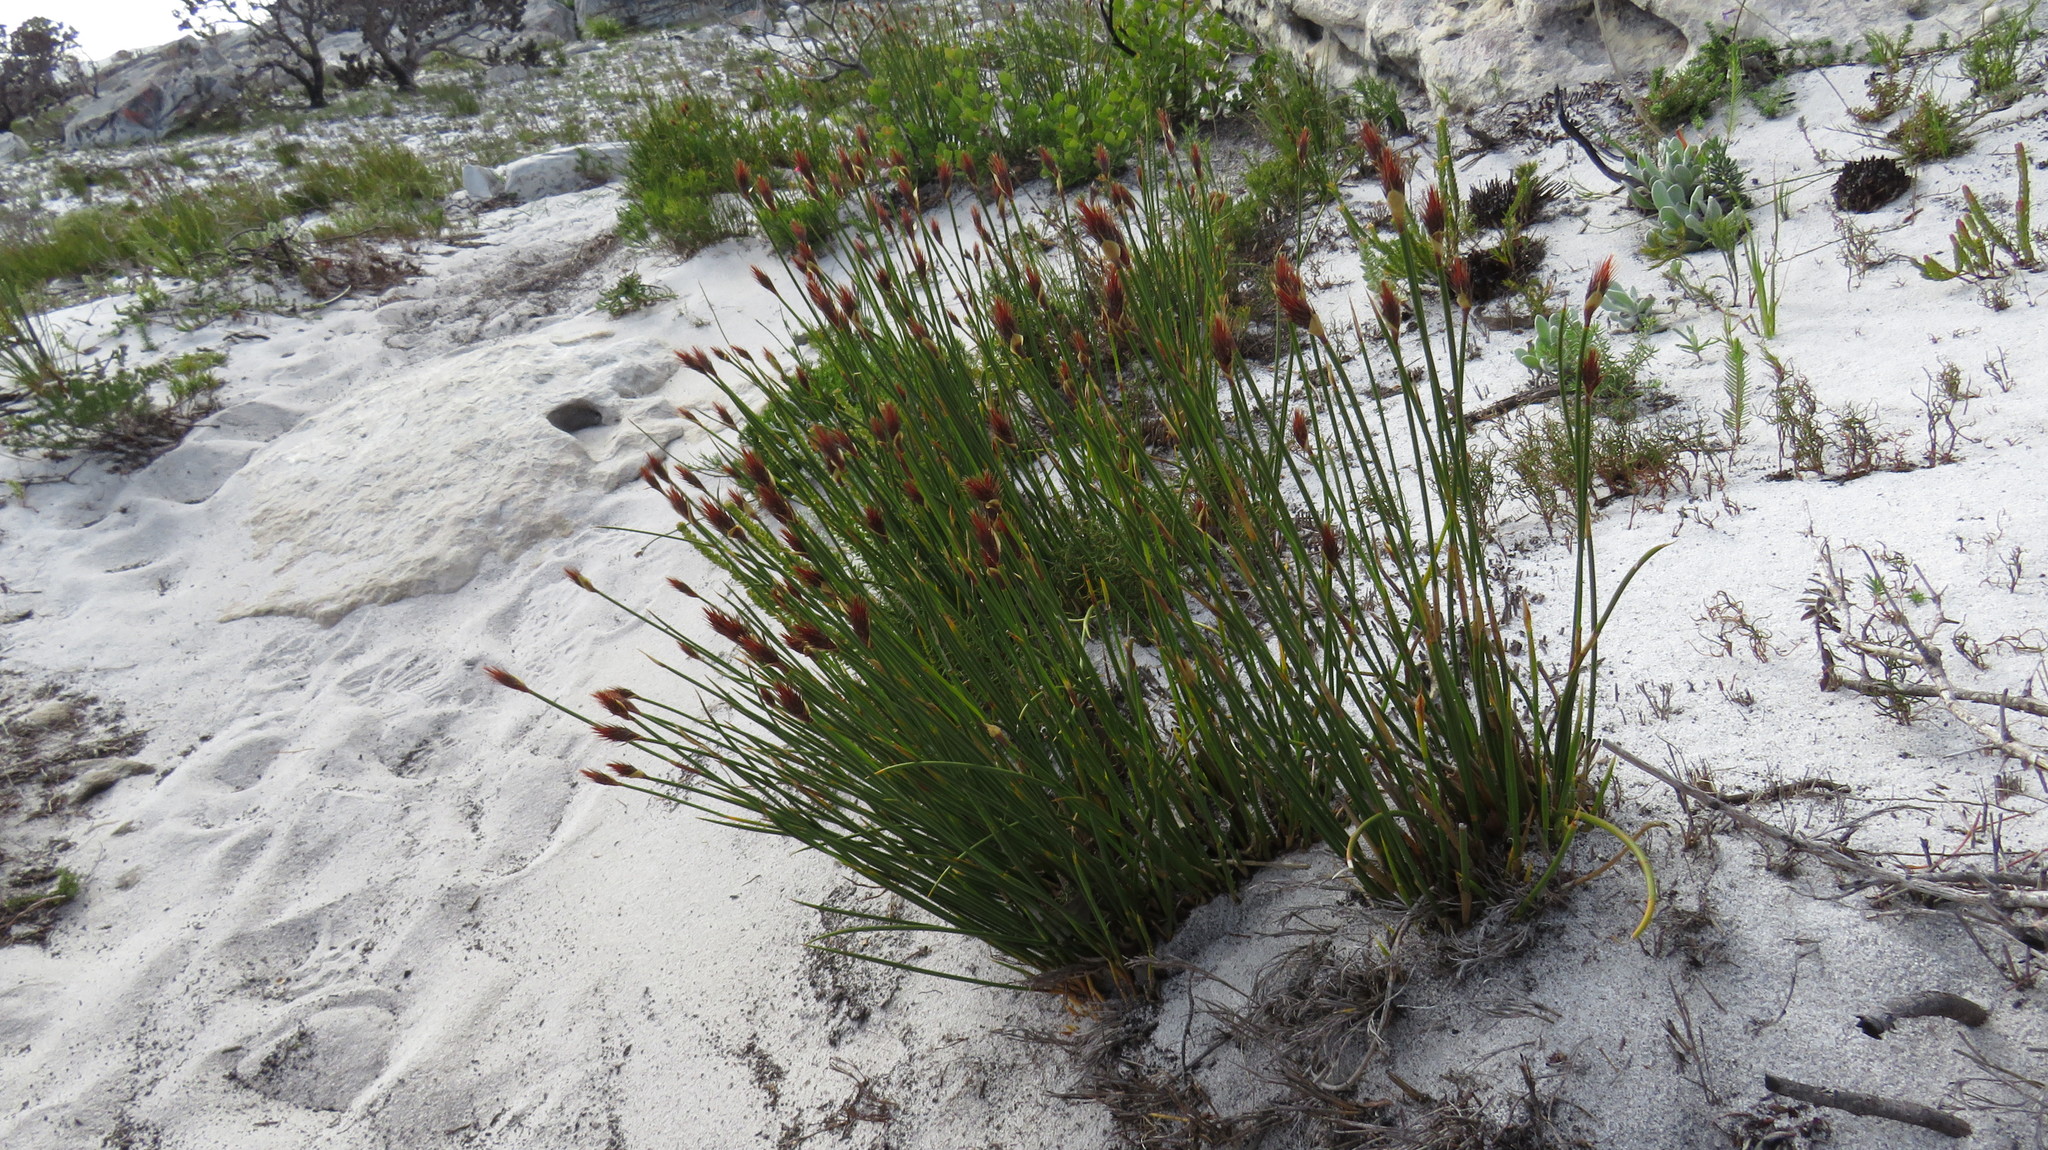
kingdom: Plantae
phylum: Tracheophyta
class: Liliopsida
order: Poales
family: Restionaceae
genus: Hypodiscus
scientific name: Hypodiscus aristatus
